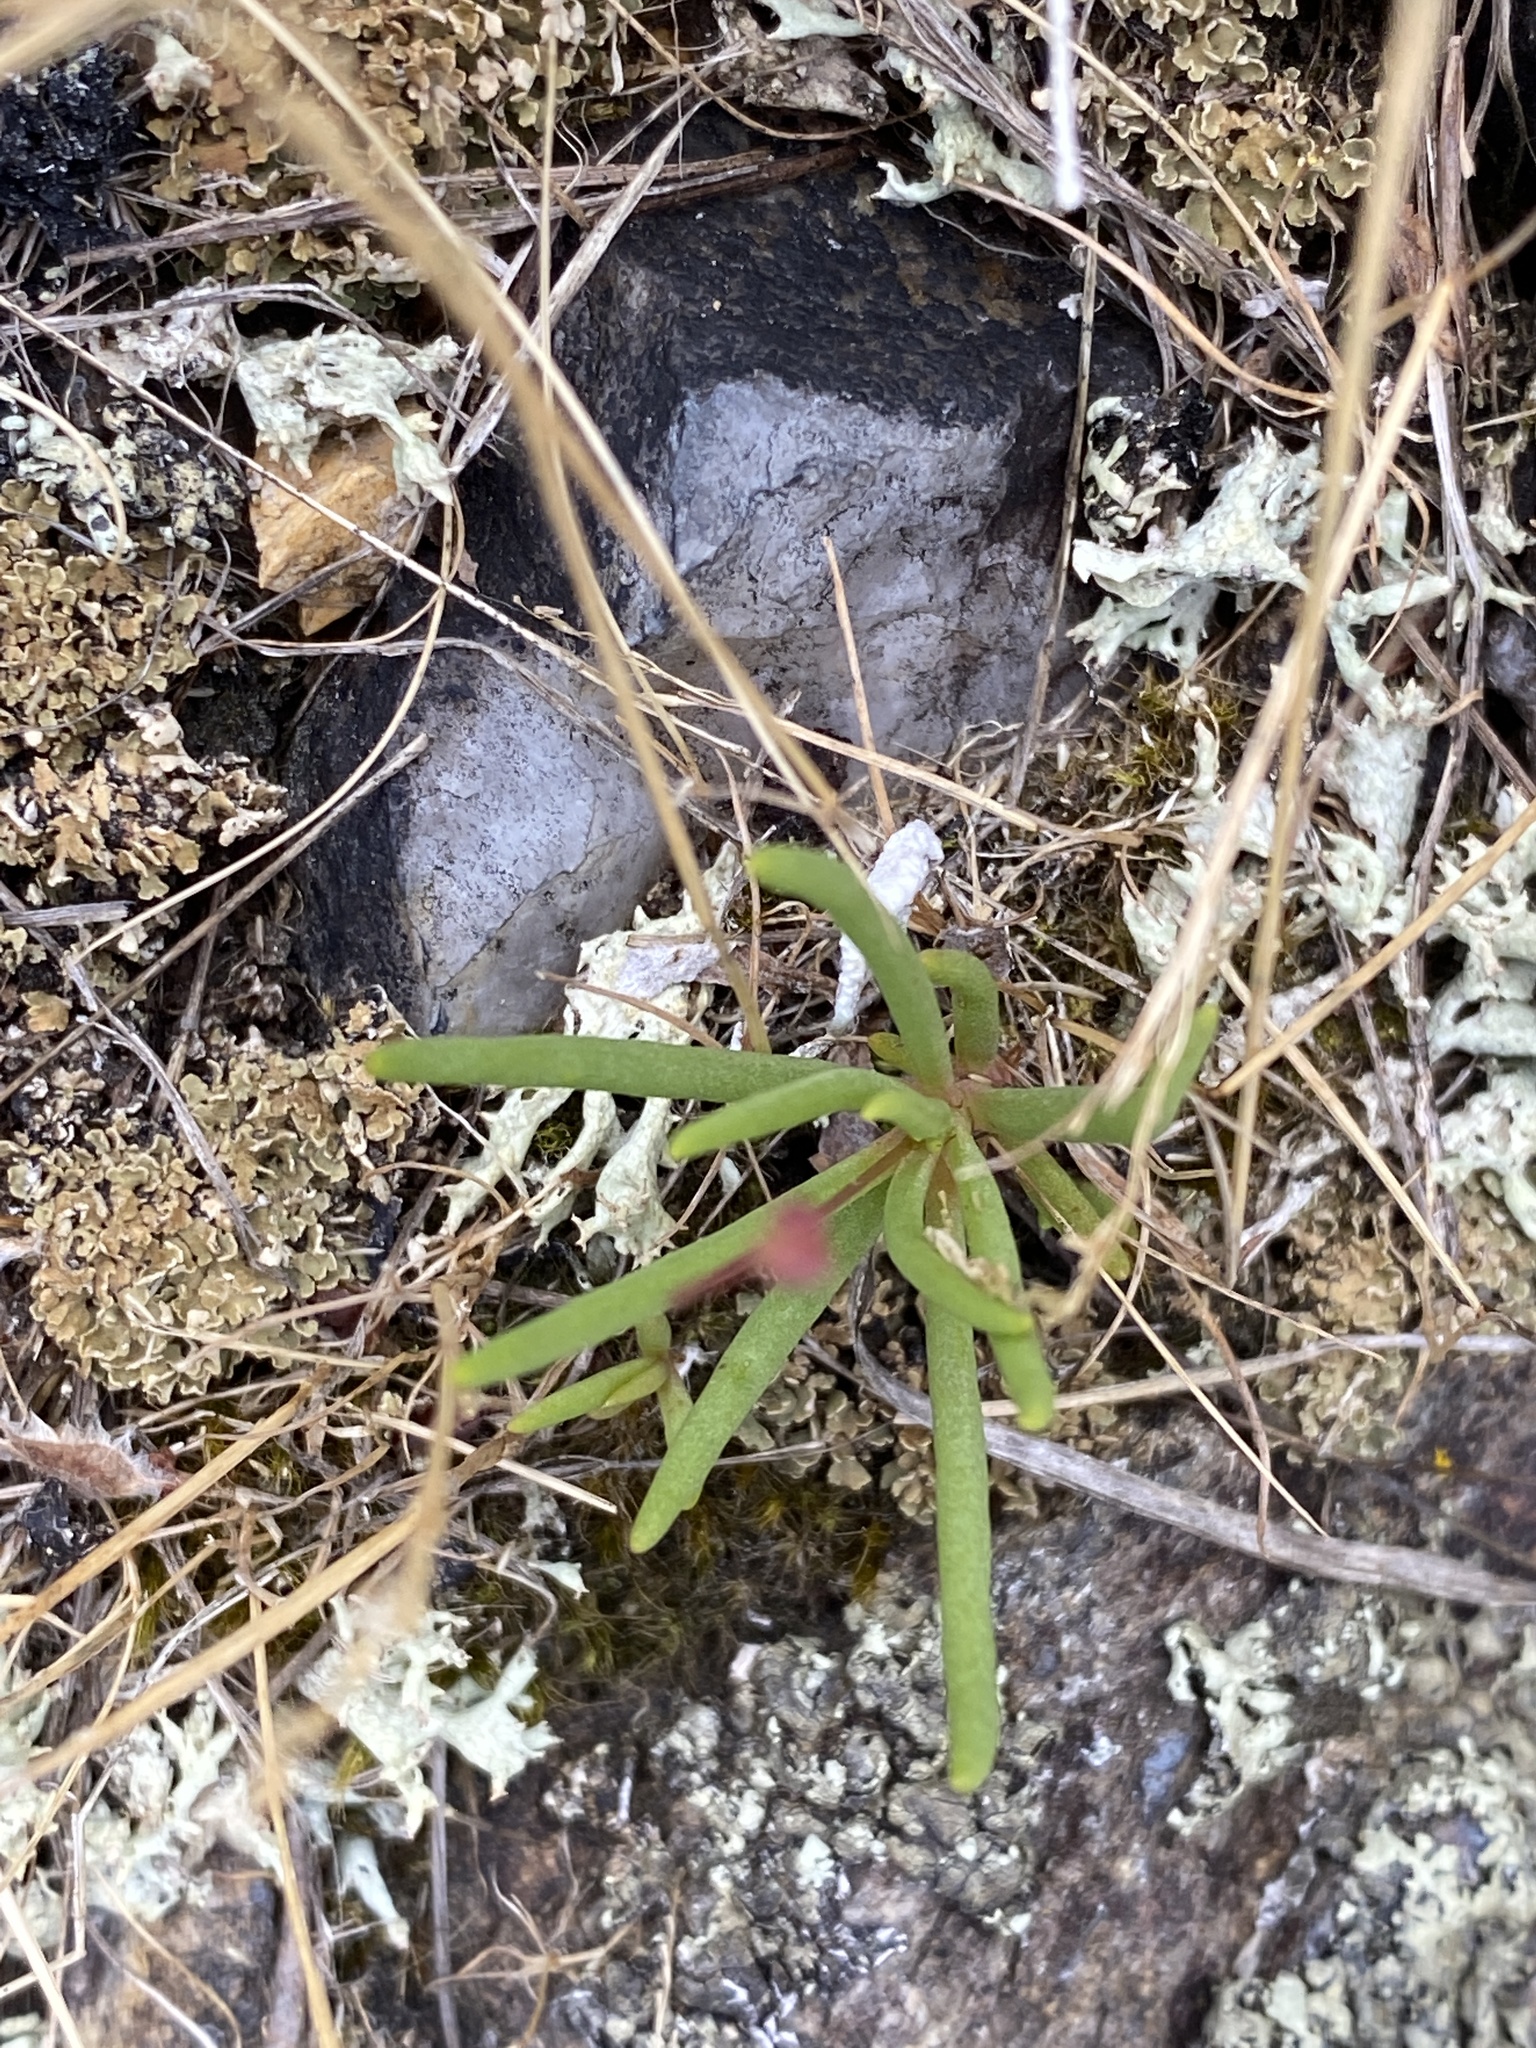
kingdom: Plantae
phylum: Tracheophyta
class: Magnoliopsida
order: Caryophyllales
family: Montiaceae
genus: Phemeranthus
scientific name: Phemeranthus teretifolius
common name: Quill fameflower
